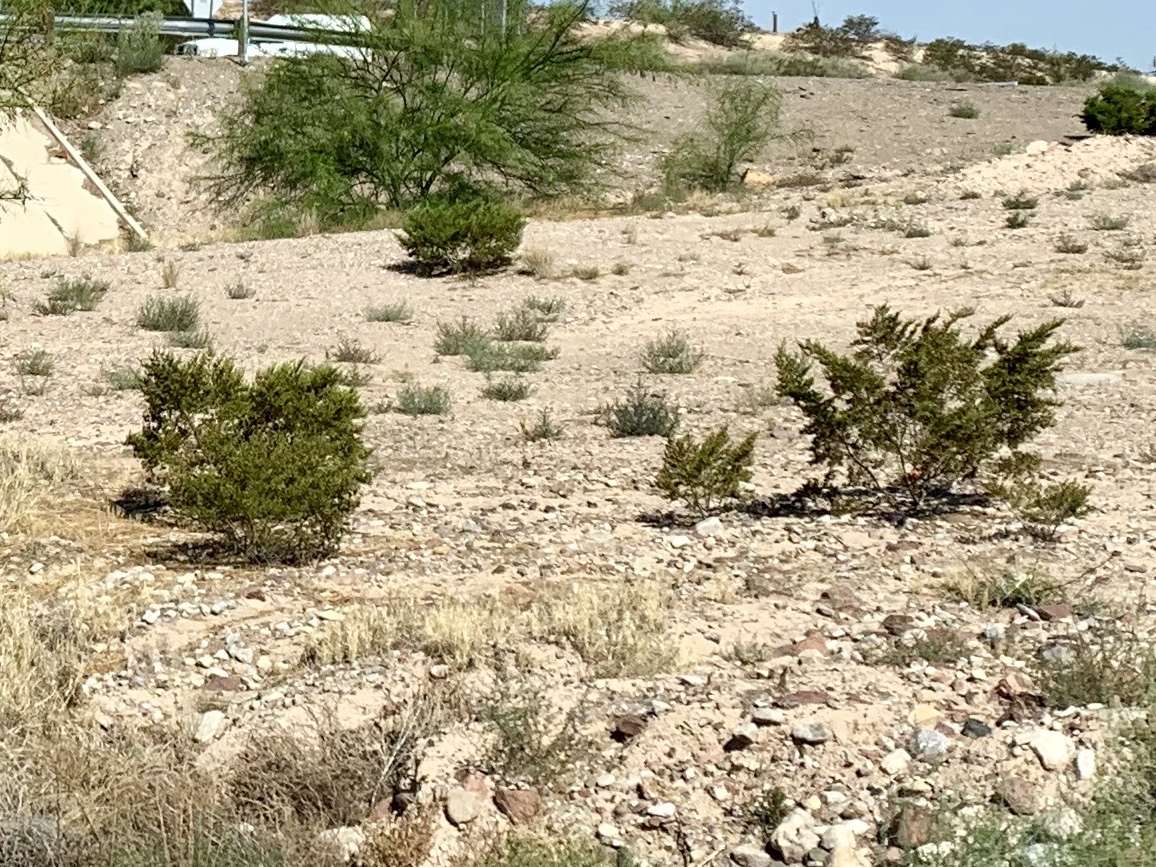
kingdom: Plantae
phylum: Tracheophyta
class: Magnoliopsida
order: Zygophyllales
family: Zygophyllaceae
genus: Larrea
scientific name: Larrea tridentata
